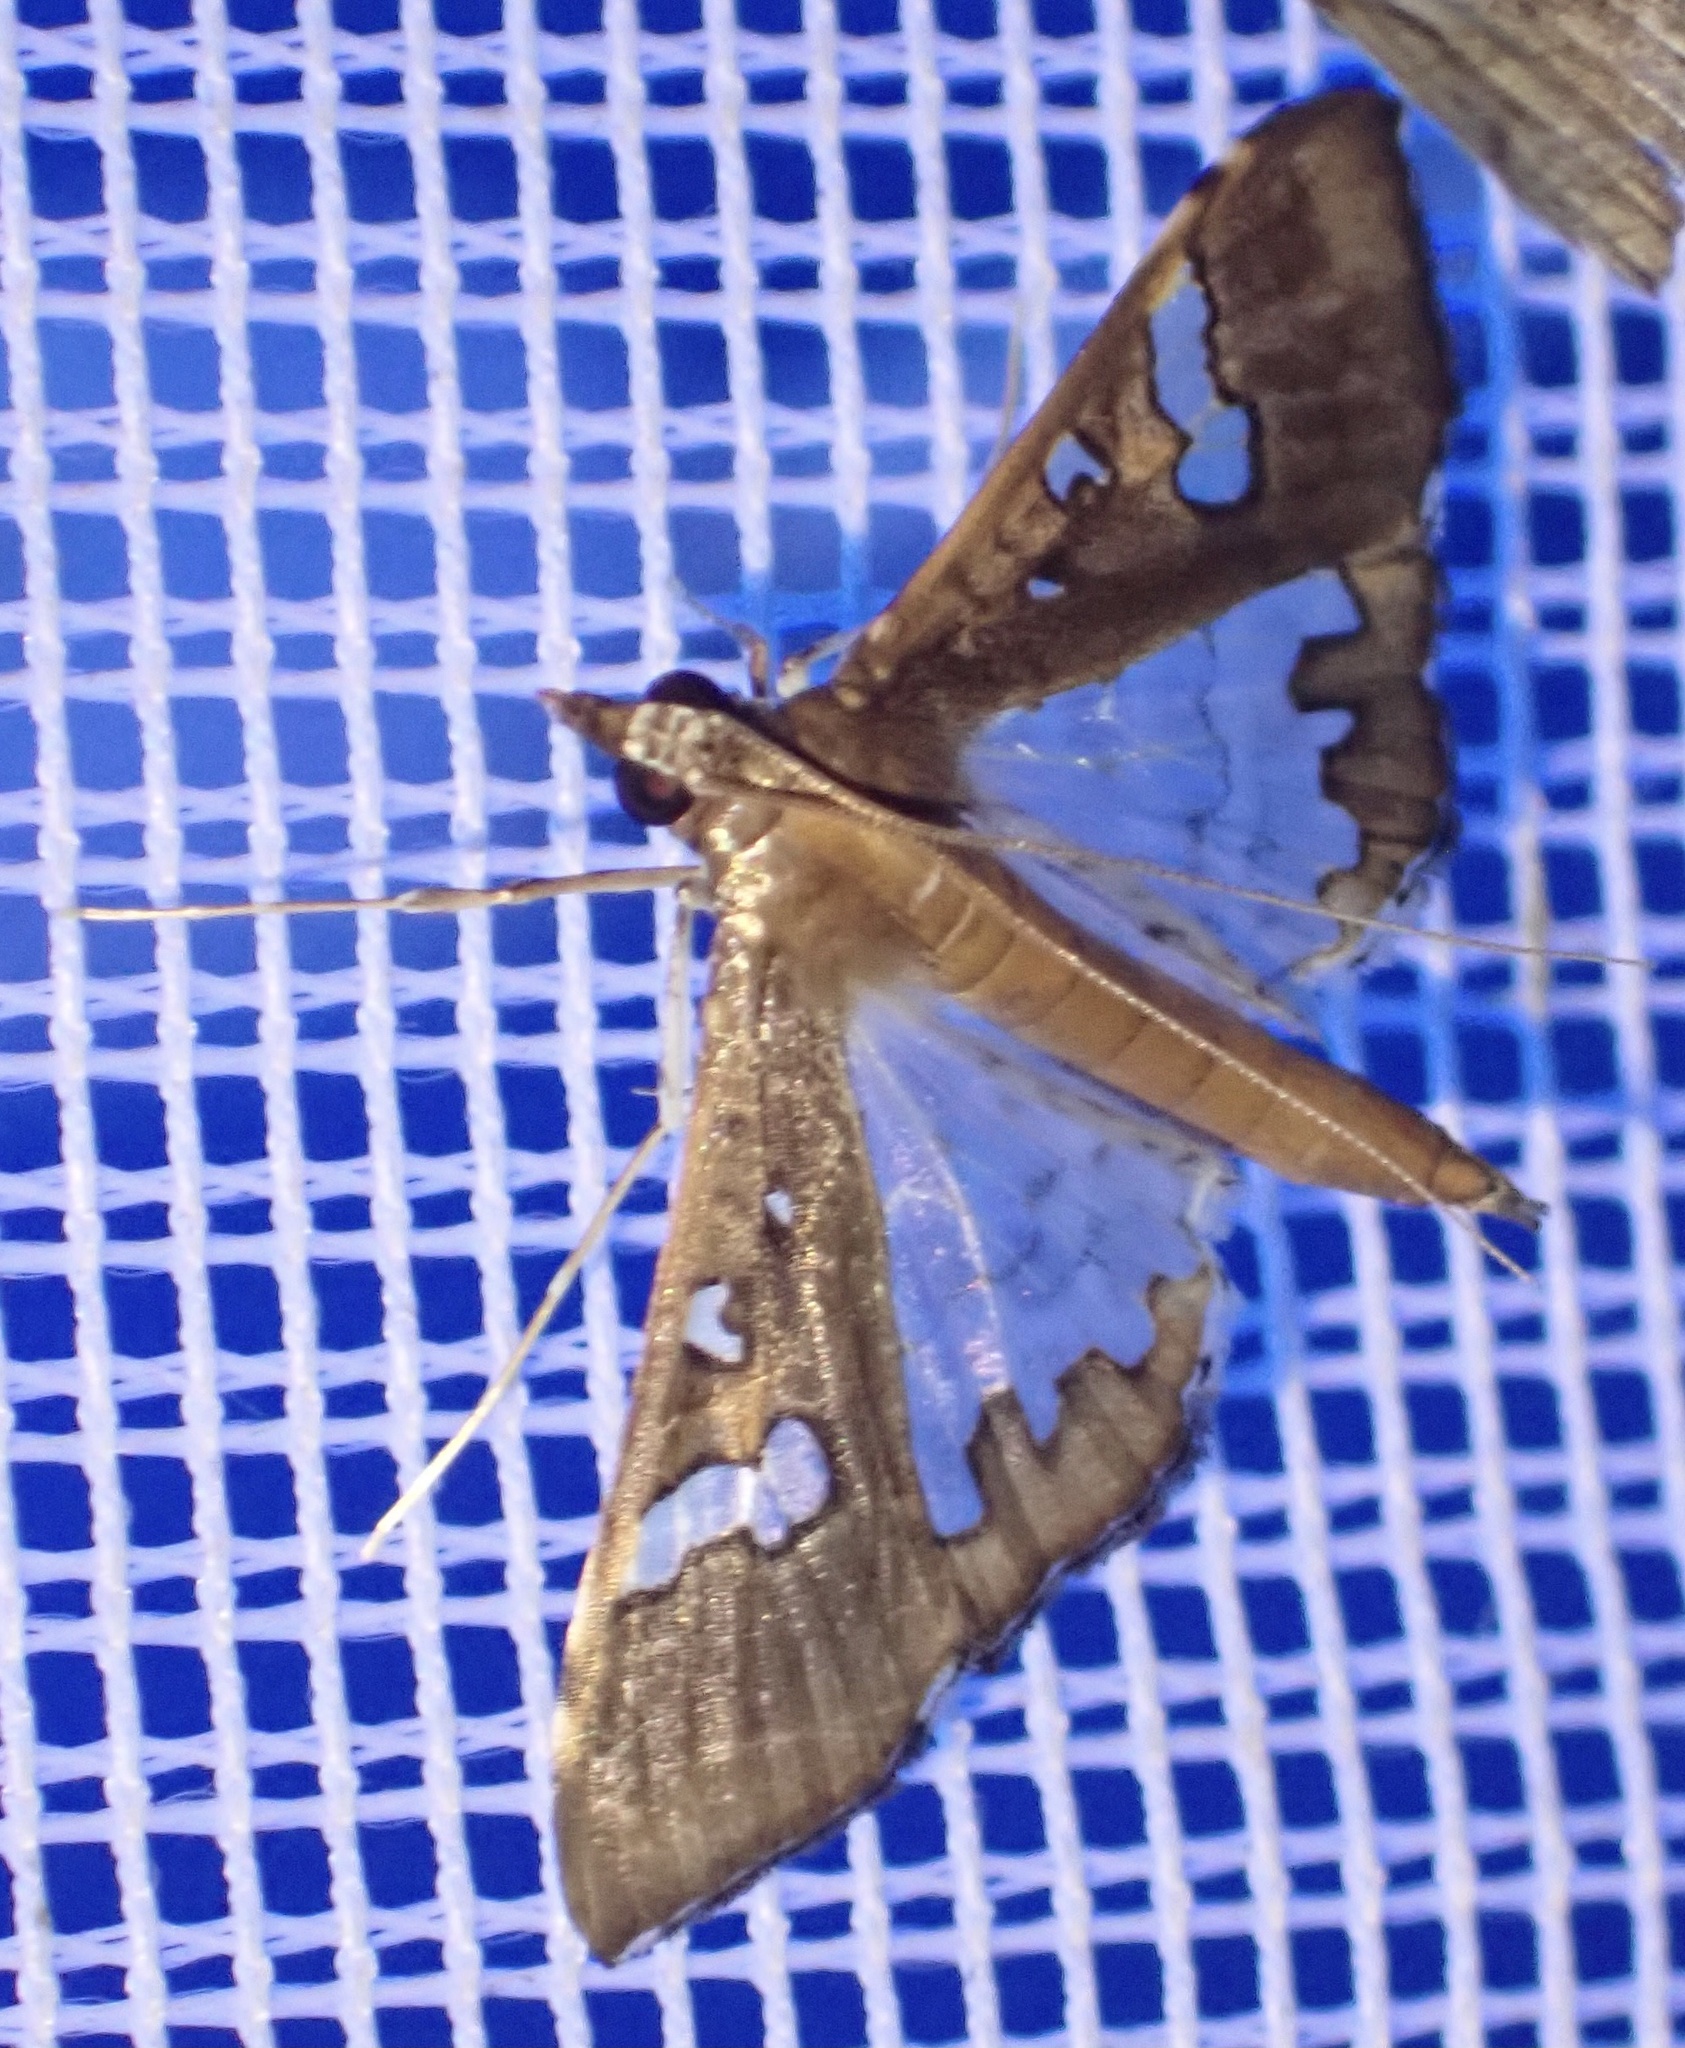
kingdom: Animalia
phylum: Arthropoda
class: Insecta
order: Lepidoptera
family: Crambidae
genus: Maruca
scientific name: Maruca vitrata
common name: Maruca pod borer
